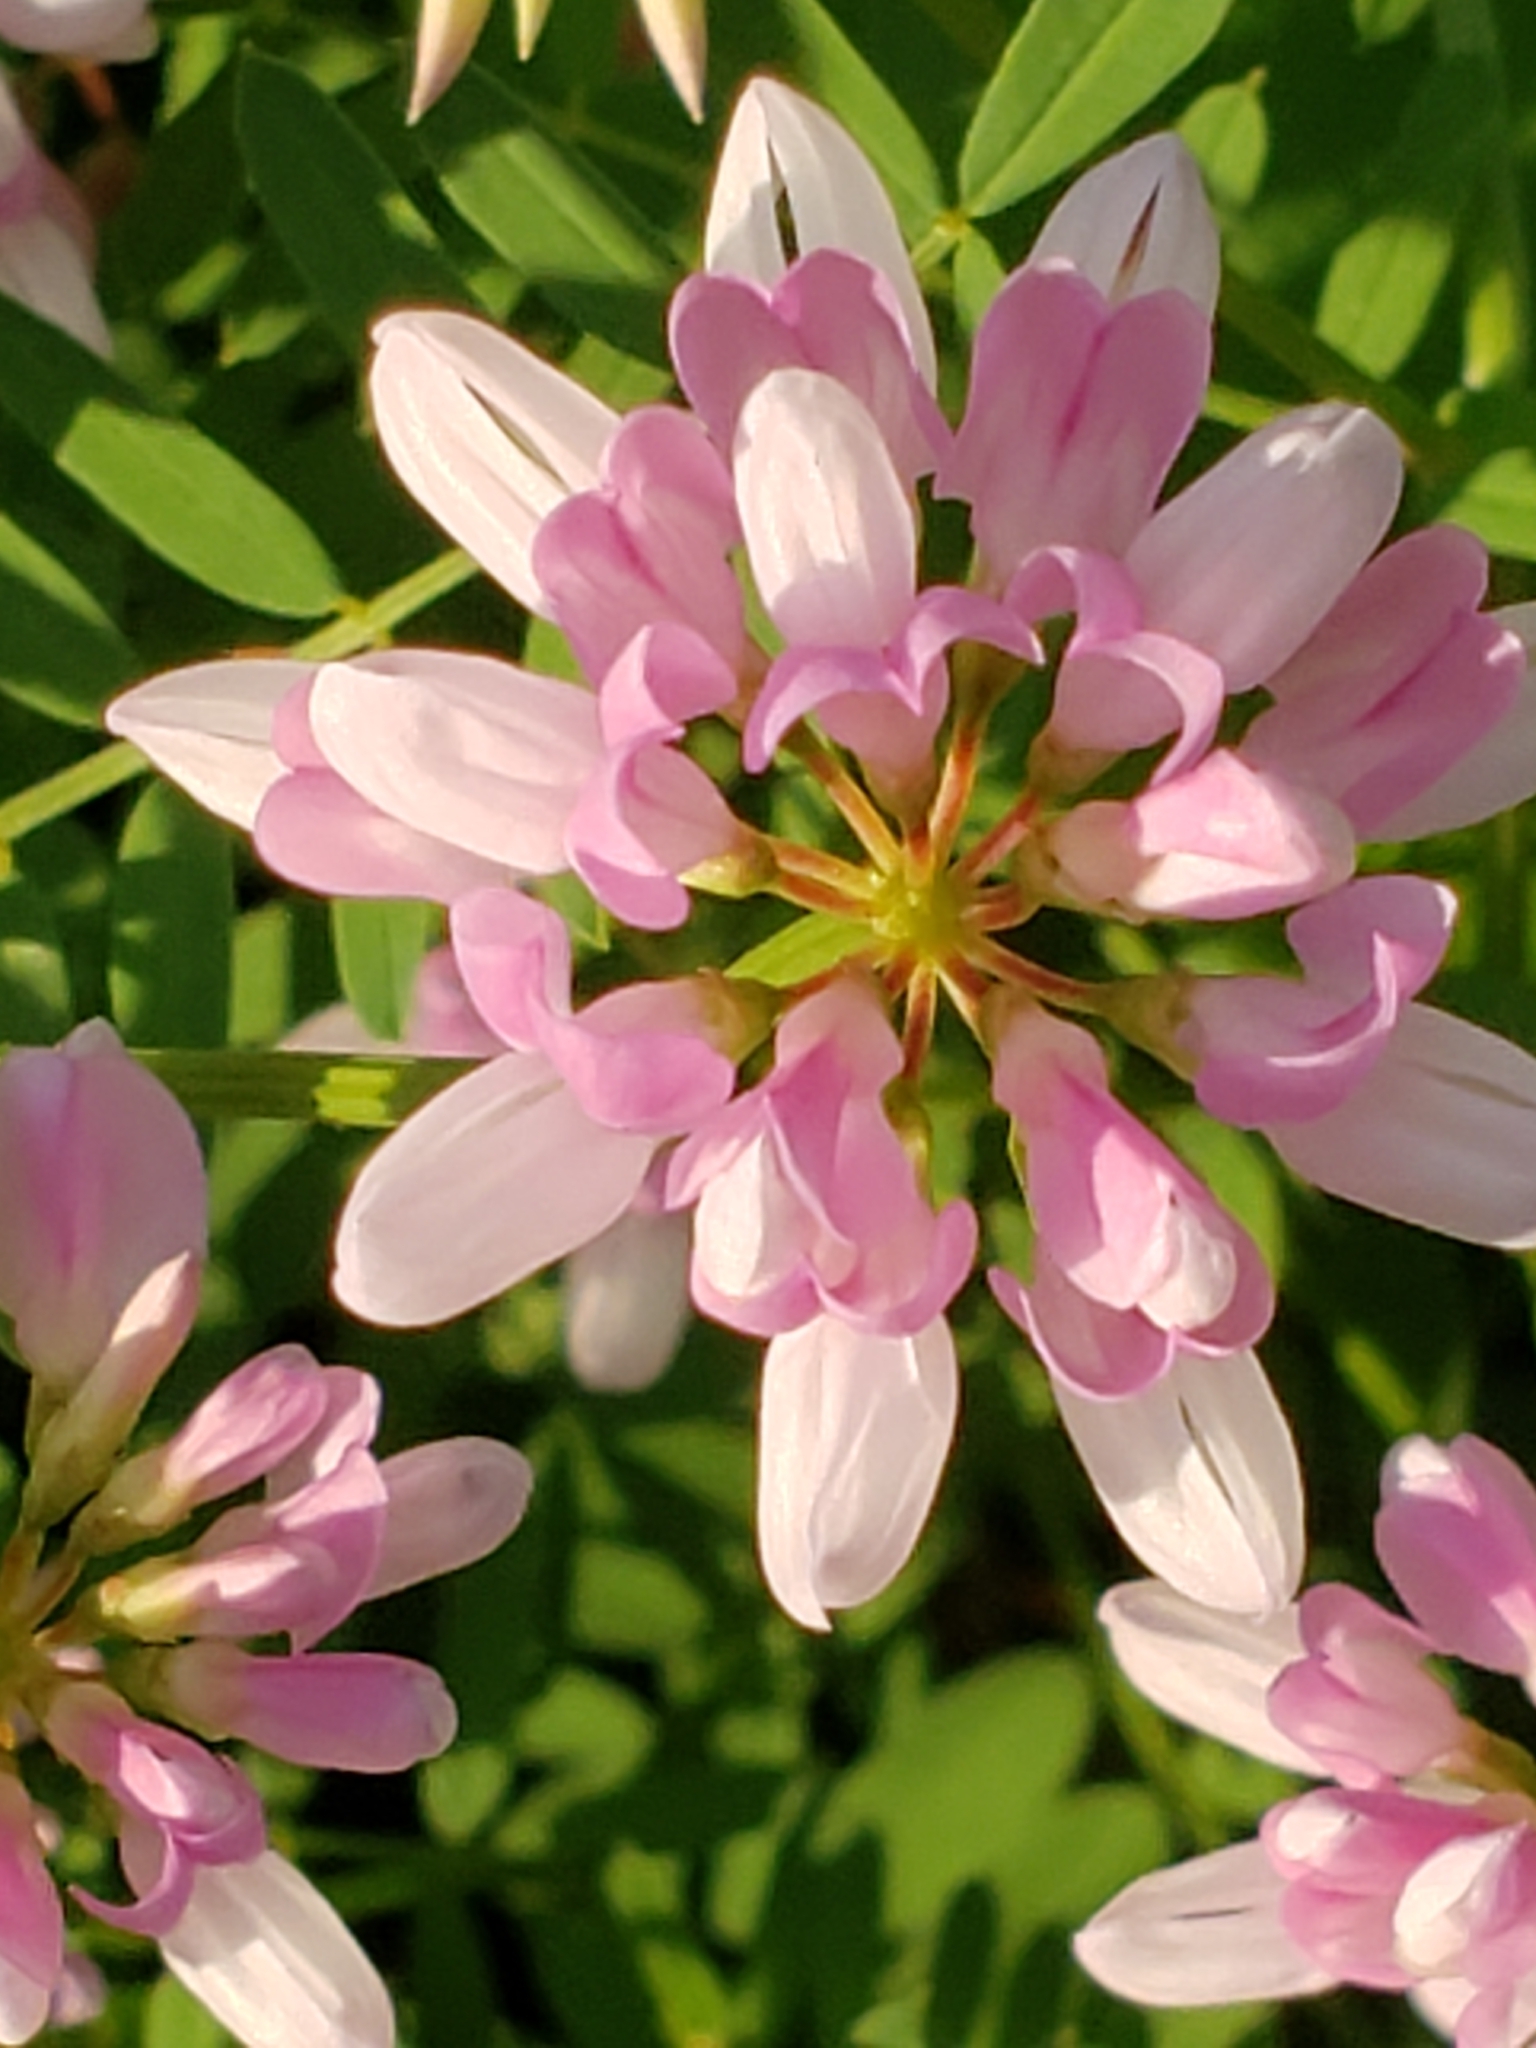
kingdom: Plantae
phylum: Tracheophyta
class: Magnoliopsida
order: Fabales
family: Fabaceae
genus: Coronilla
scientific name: Coronilla varia
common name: Crownvetch
